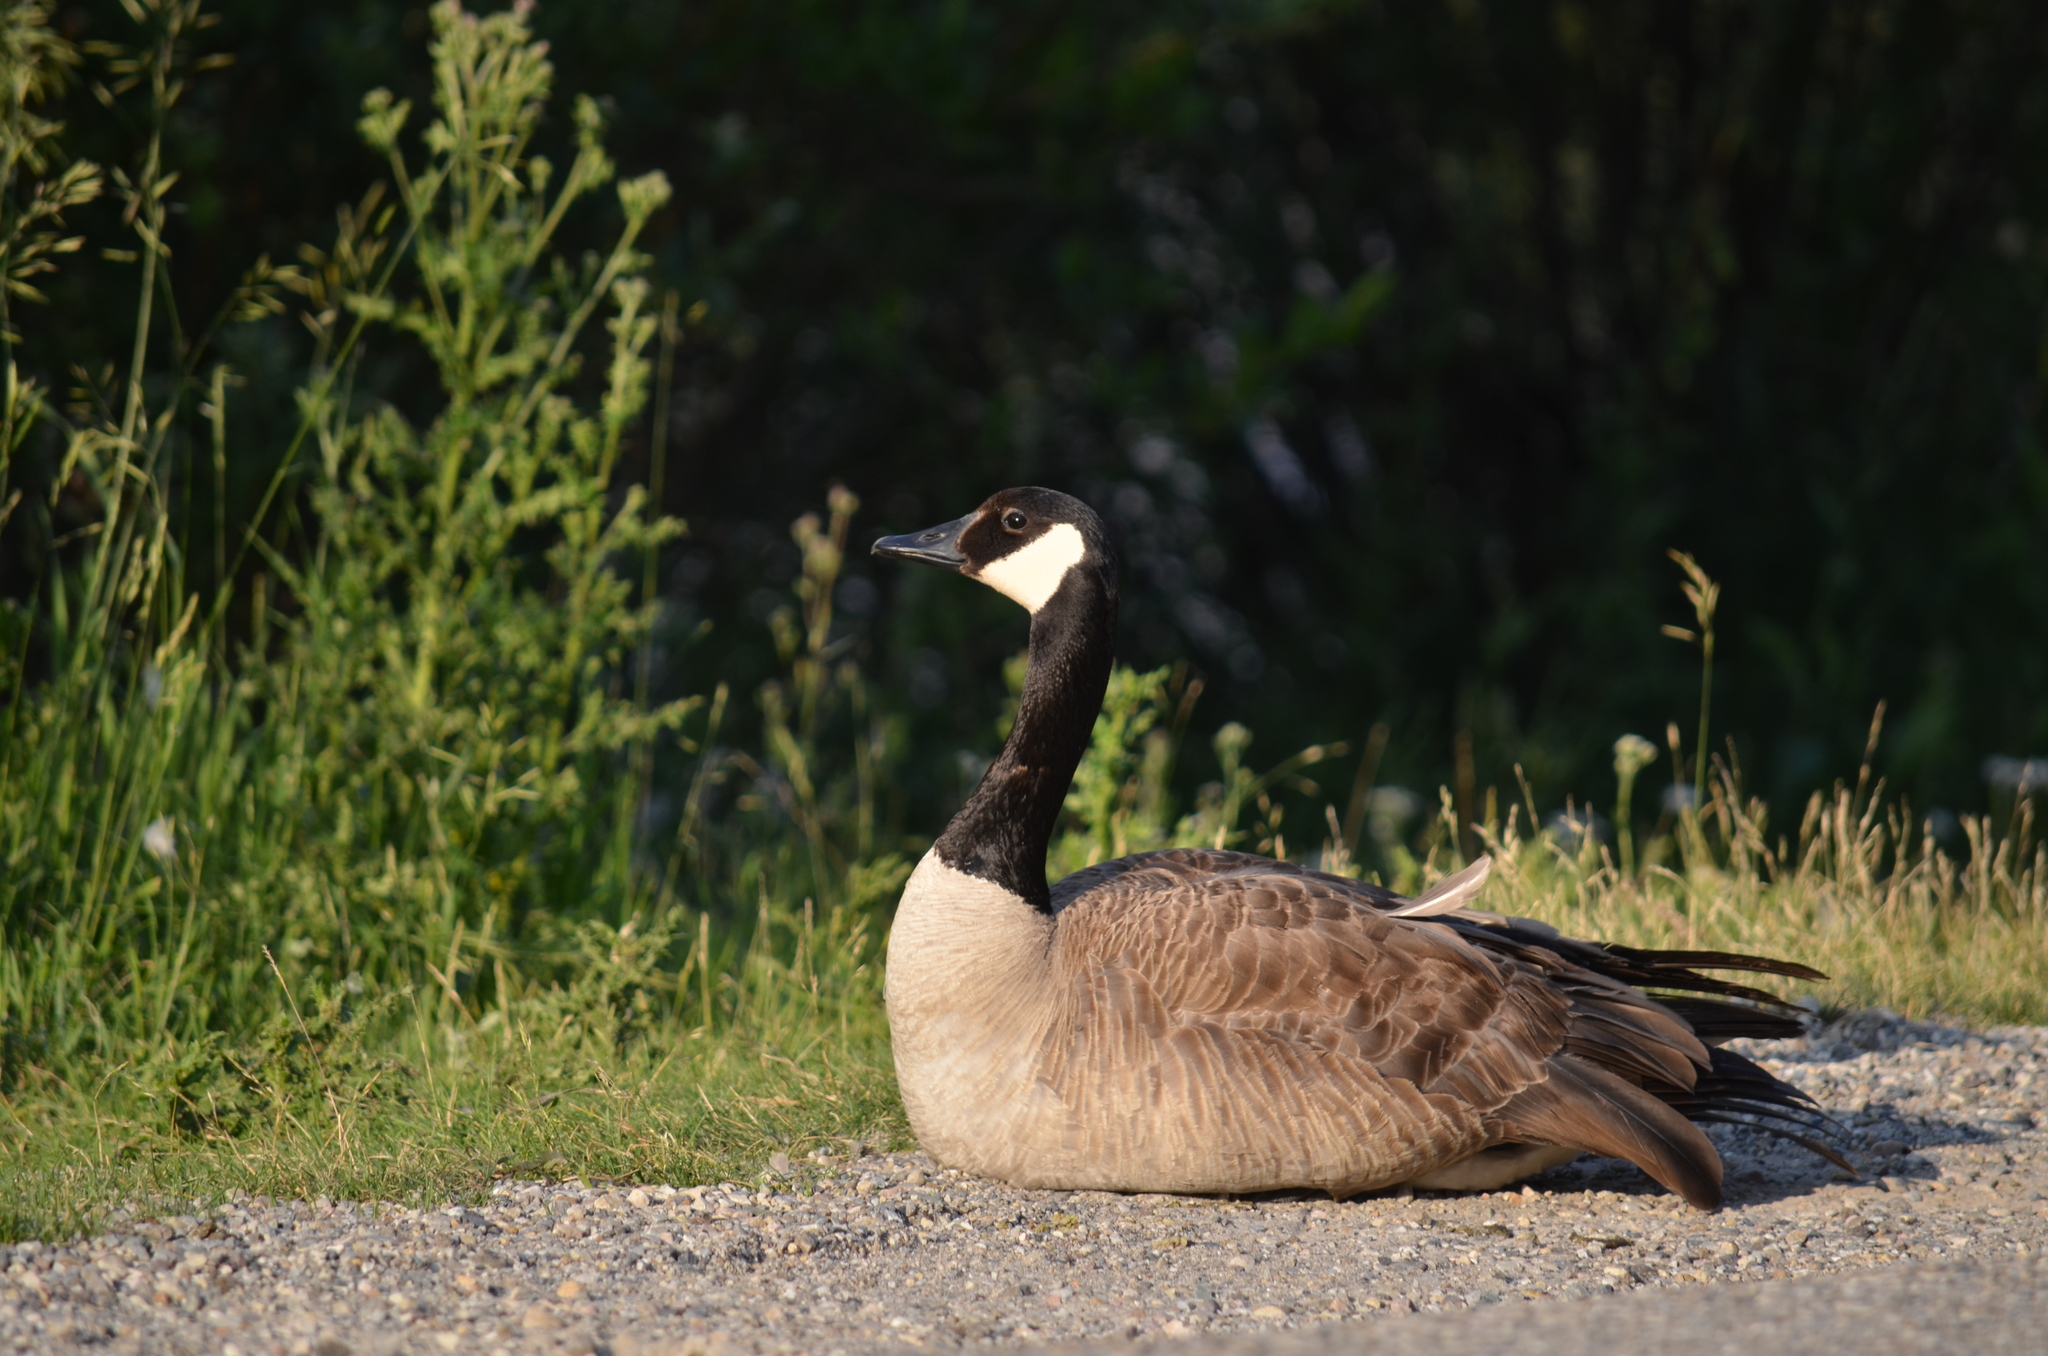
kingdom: Animalia
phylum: Chordata
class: Aves
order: Anseriformes
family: Anatidae
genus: Branta
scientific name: Branta canadensis
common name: Canada goose
